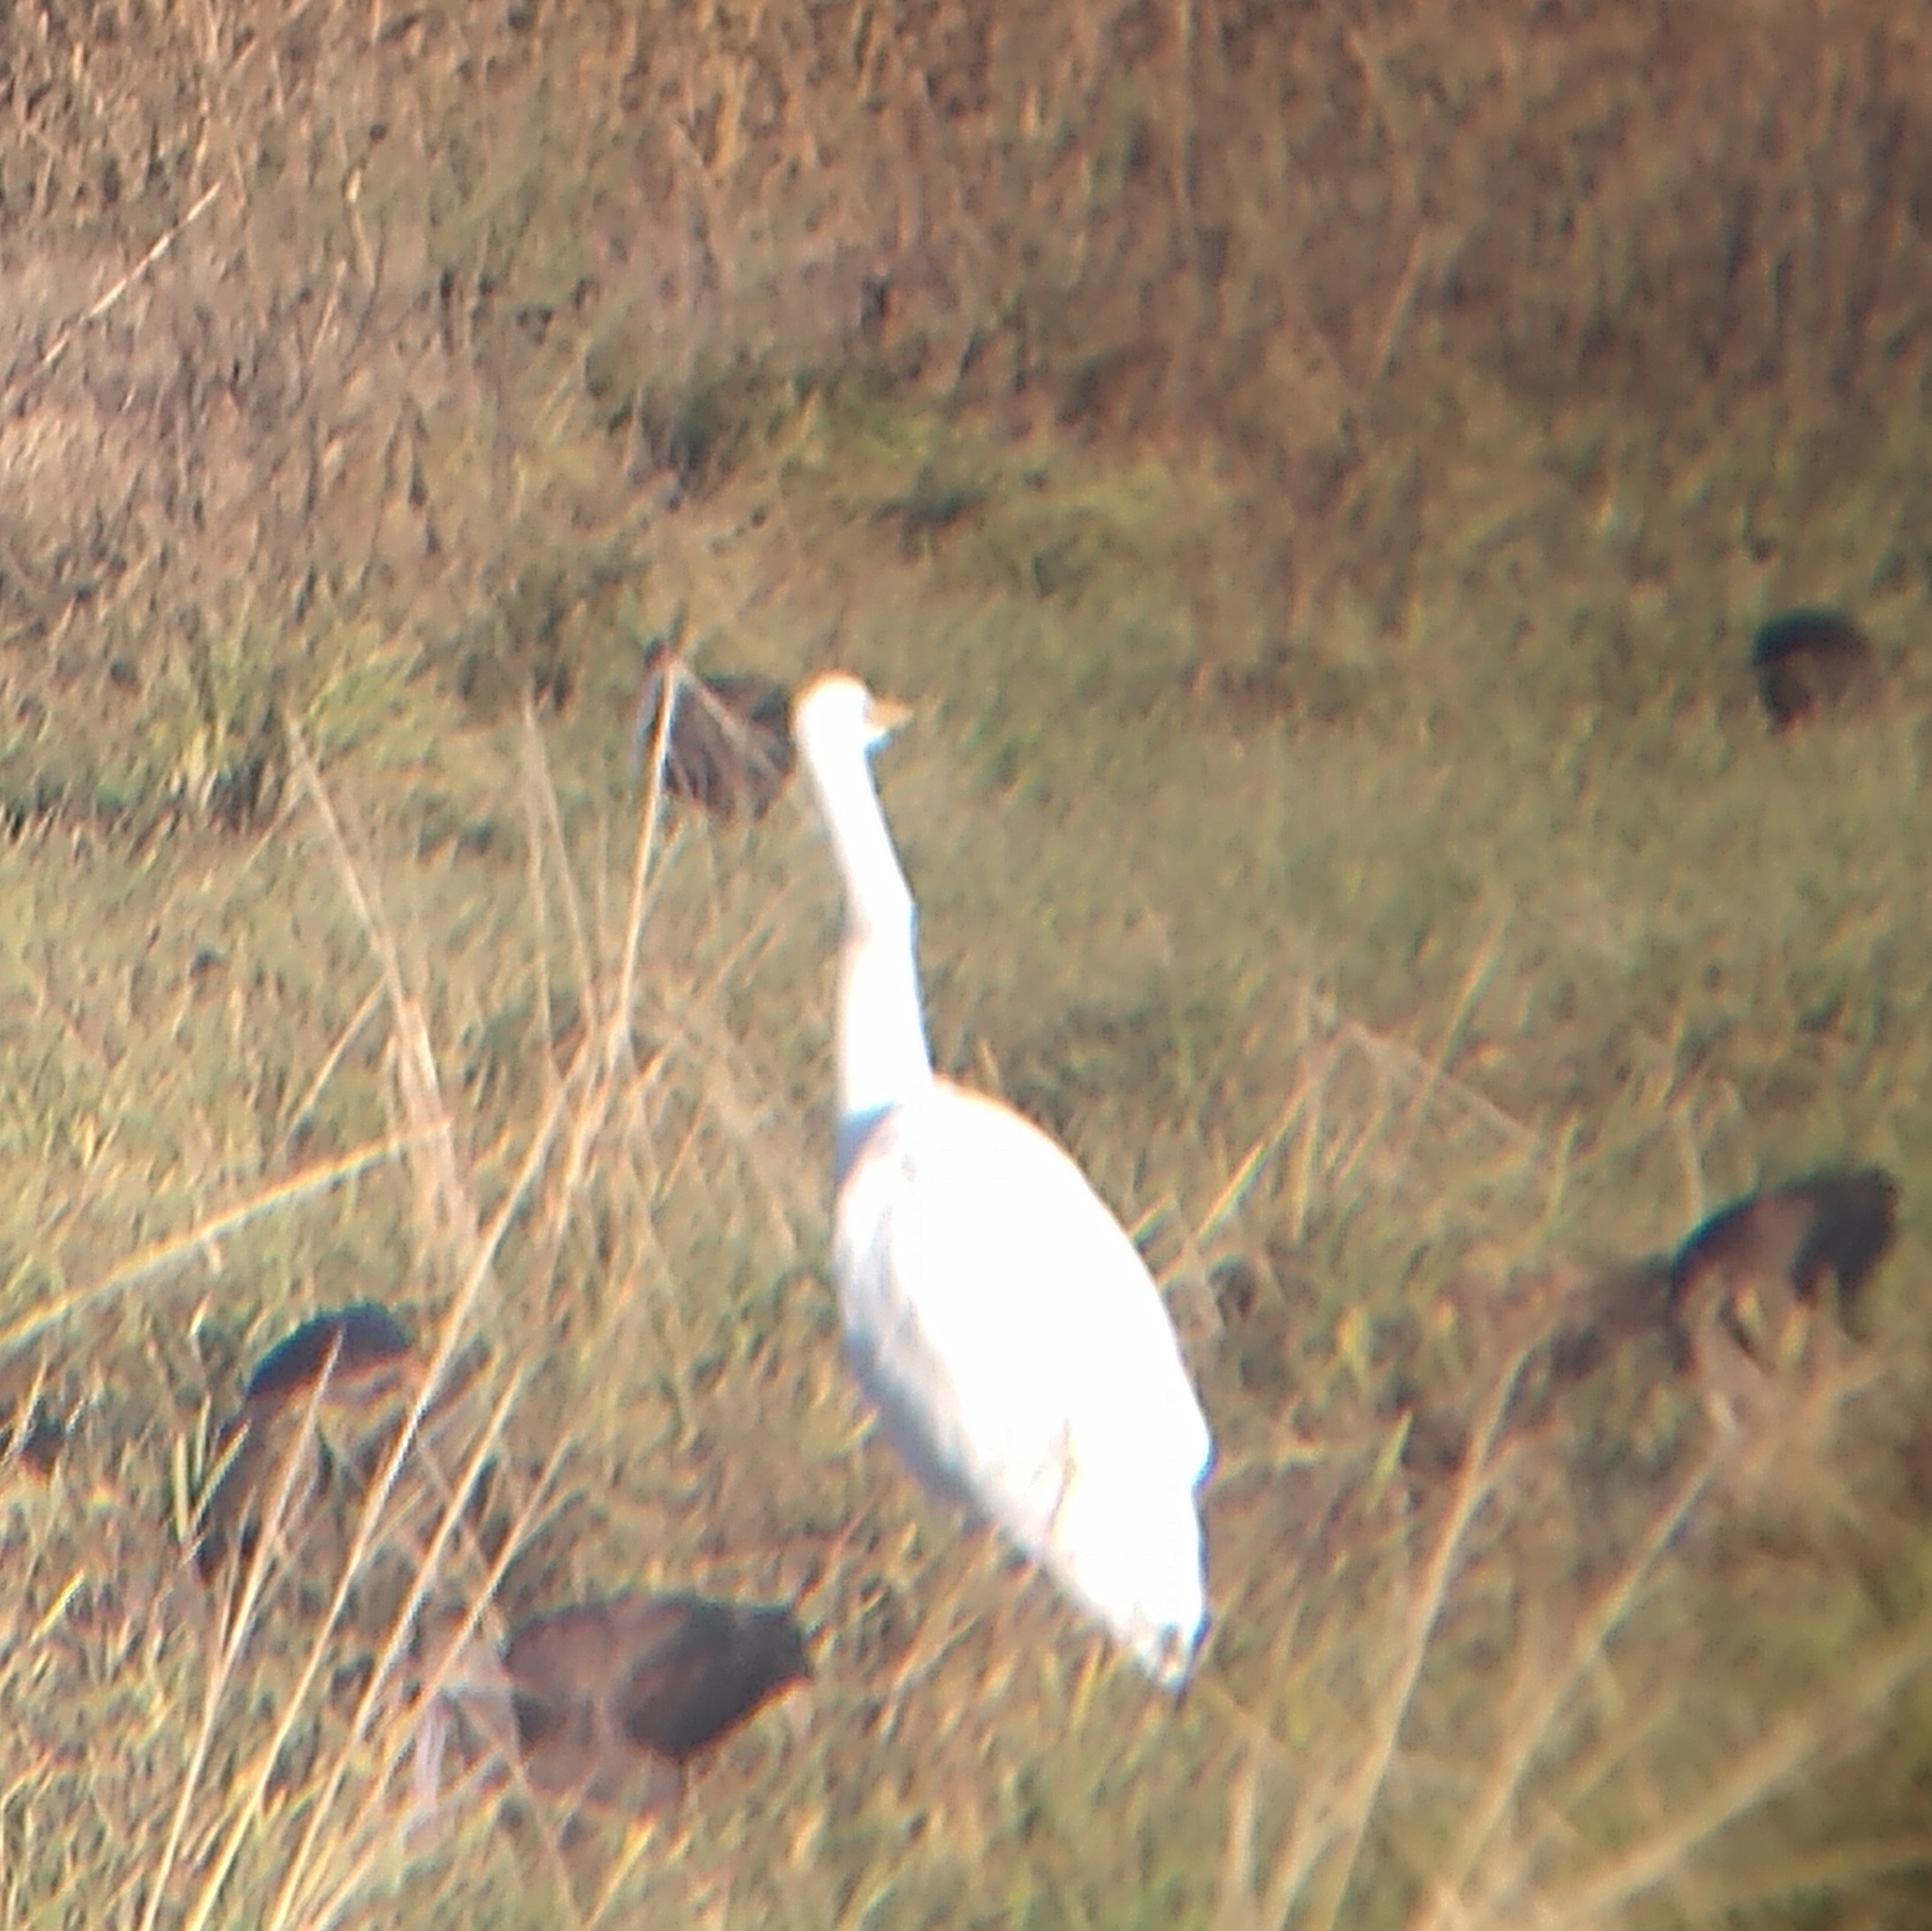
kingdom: Animalia
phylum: Chordata
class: Aves
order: Pelecaniformes
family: Ardeidae
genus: Ardea
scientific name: Ardea alba
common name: Great egret
